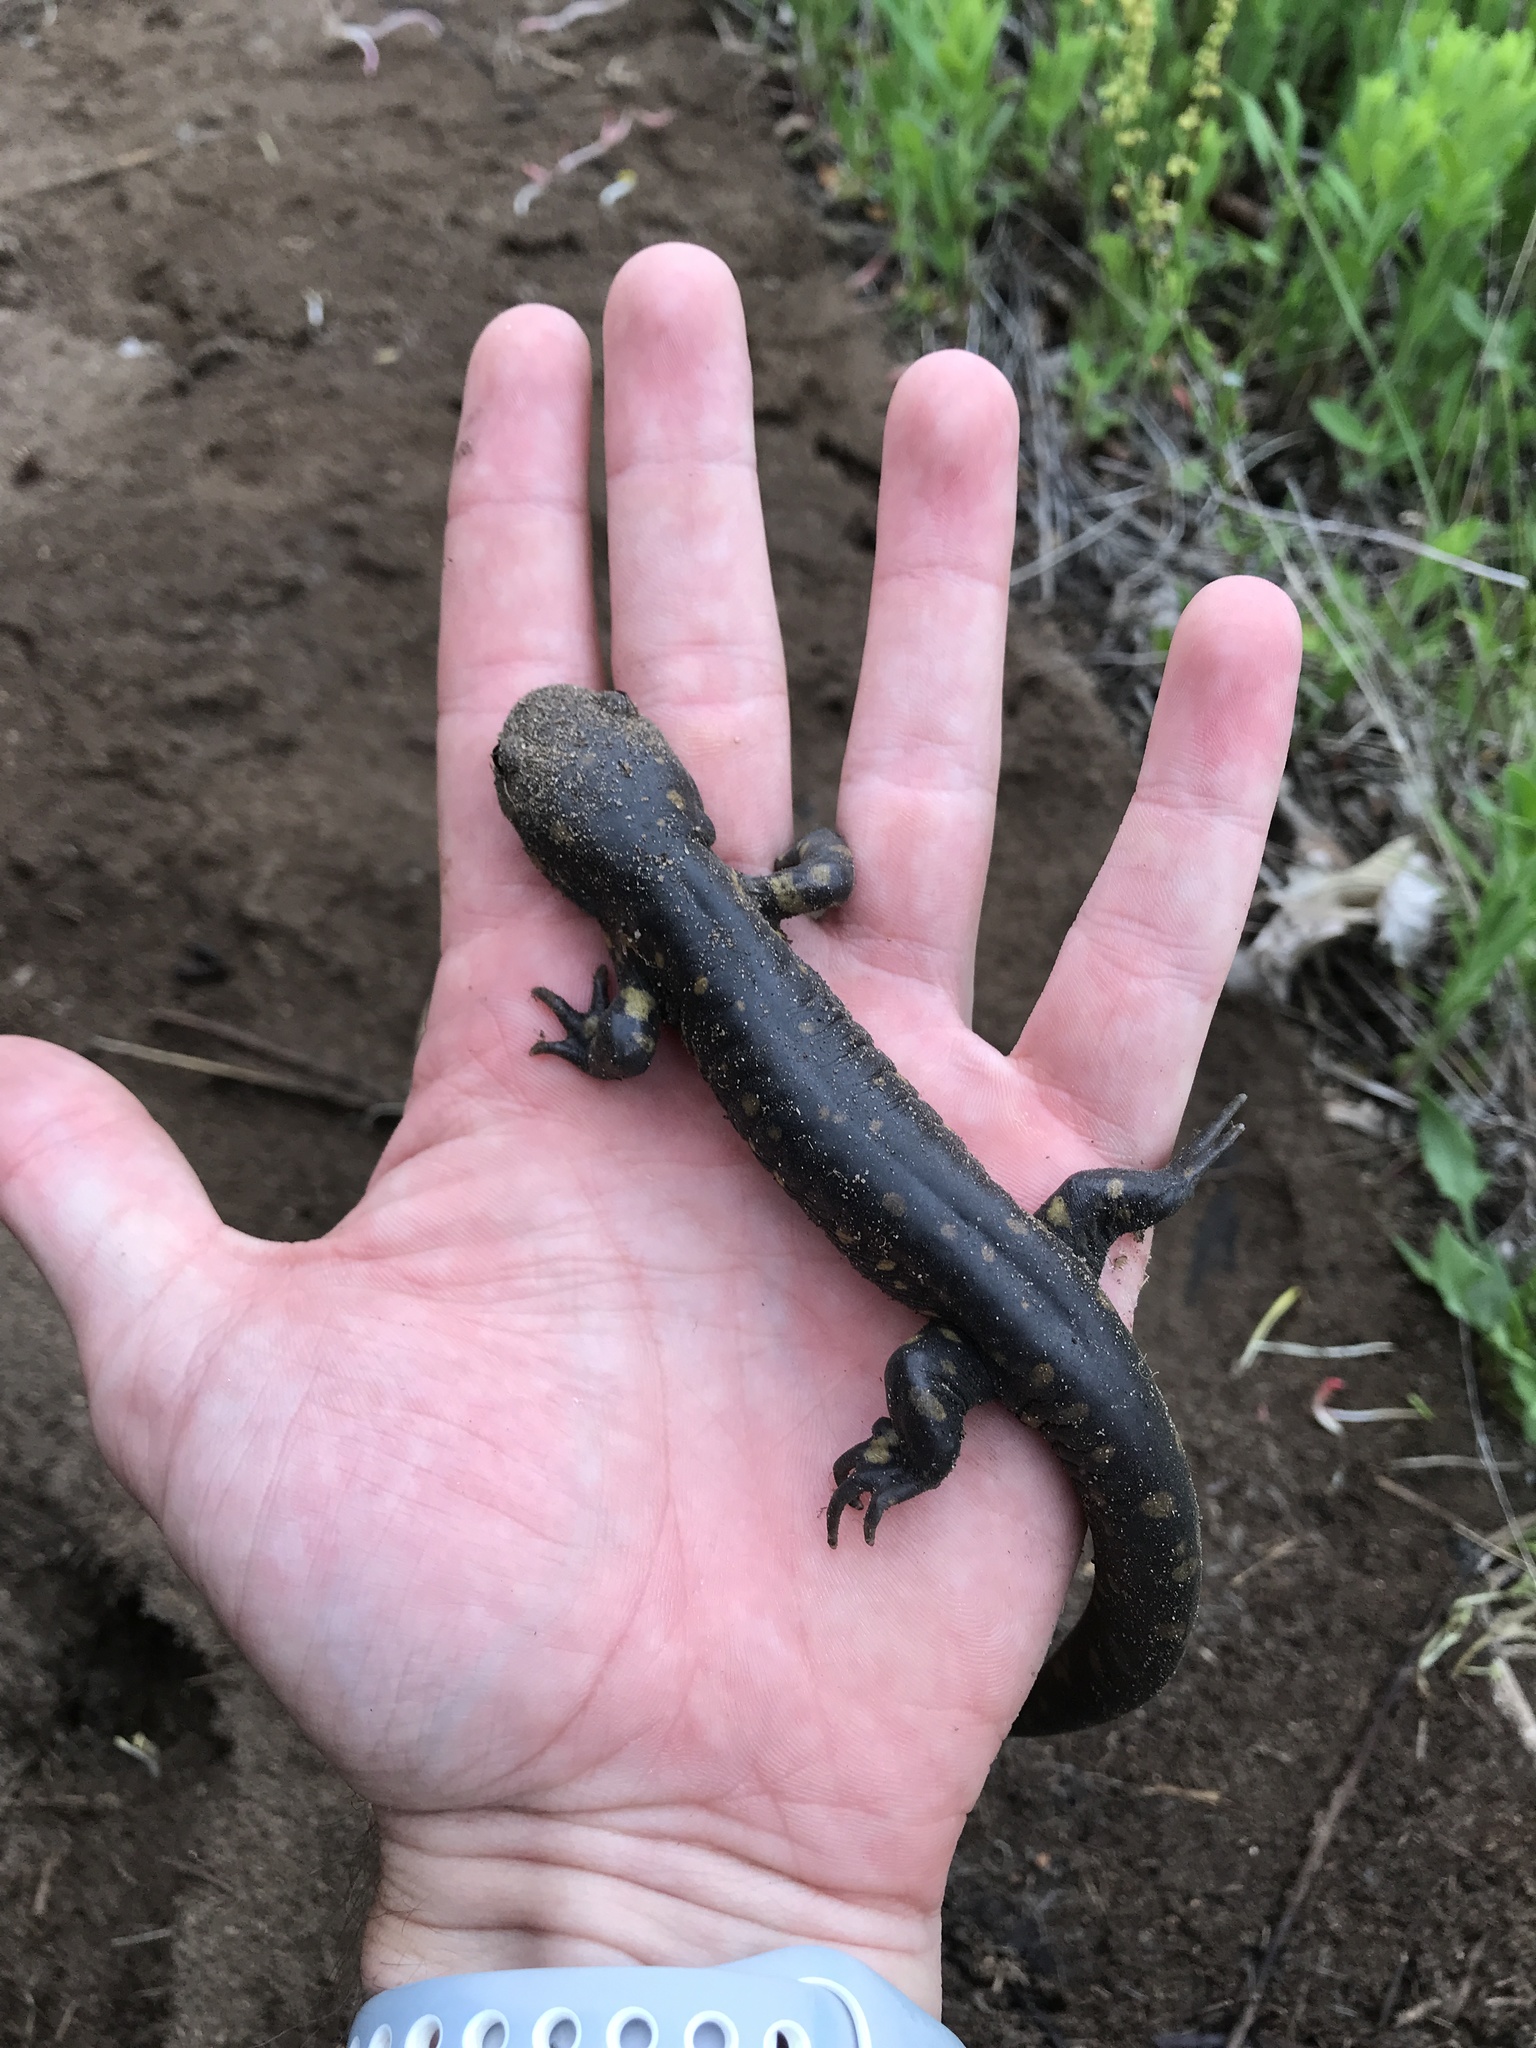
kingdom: Animalia
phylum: Chordata
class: Amphibia
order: Caudata
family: Ambystomatidae
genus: Ambystoma
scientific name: Ambystoma tigrinum
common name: Tiger salamander
